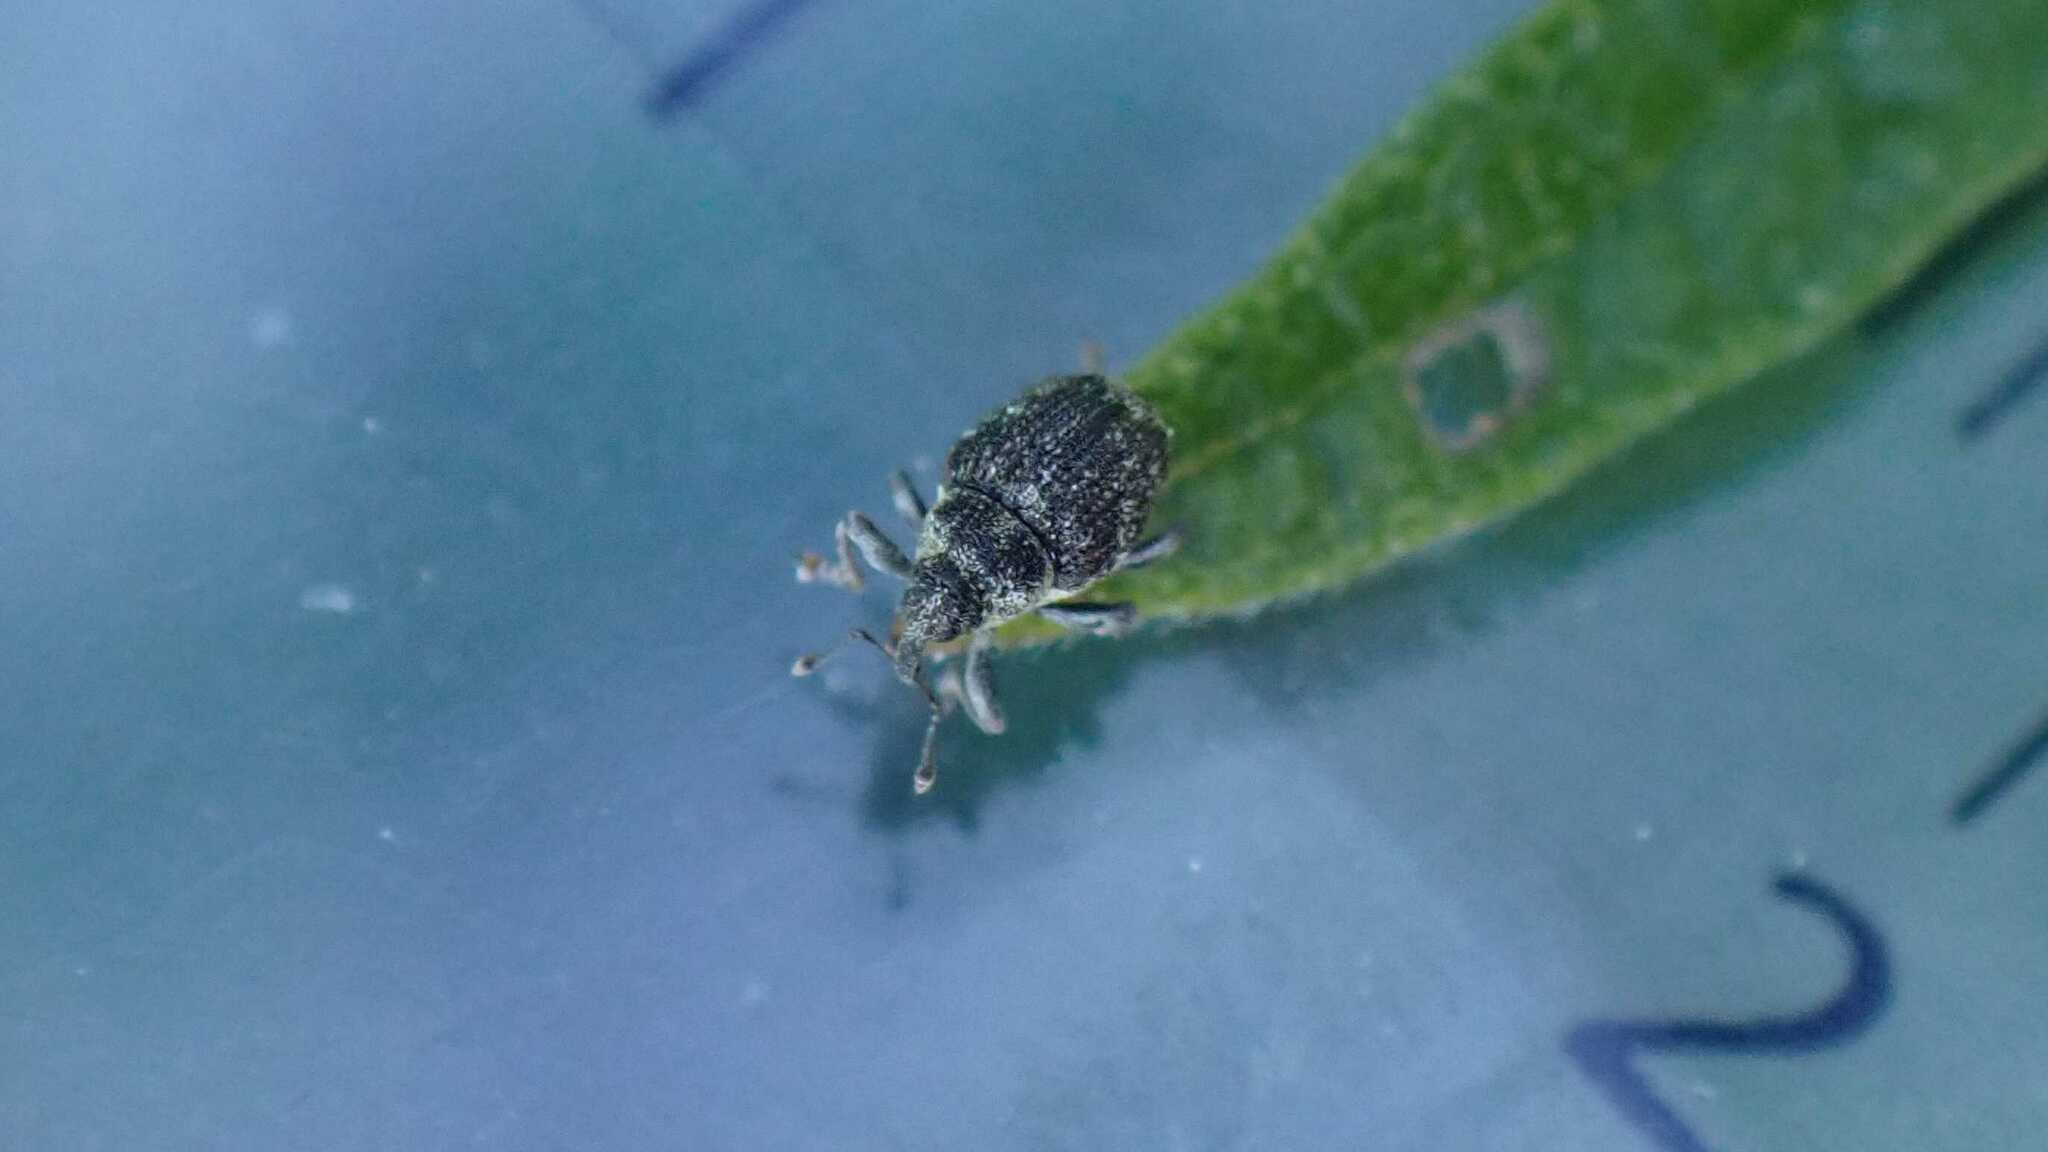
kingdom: Animalia
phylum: Arthropoda
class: Insecta
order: Coleoptera
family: Curculionidae
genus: Nedyus
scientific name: Nedyus quadrimaculatus
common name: Small nettle weevil
